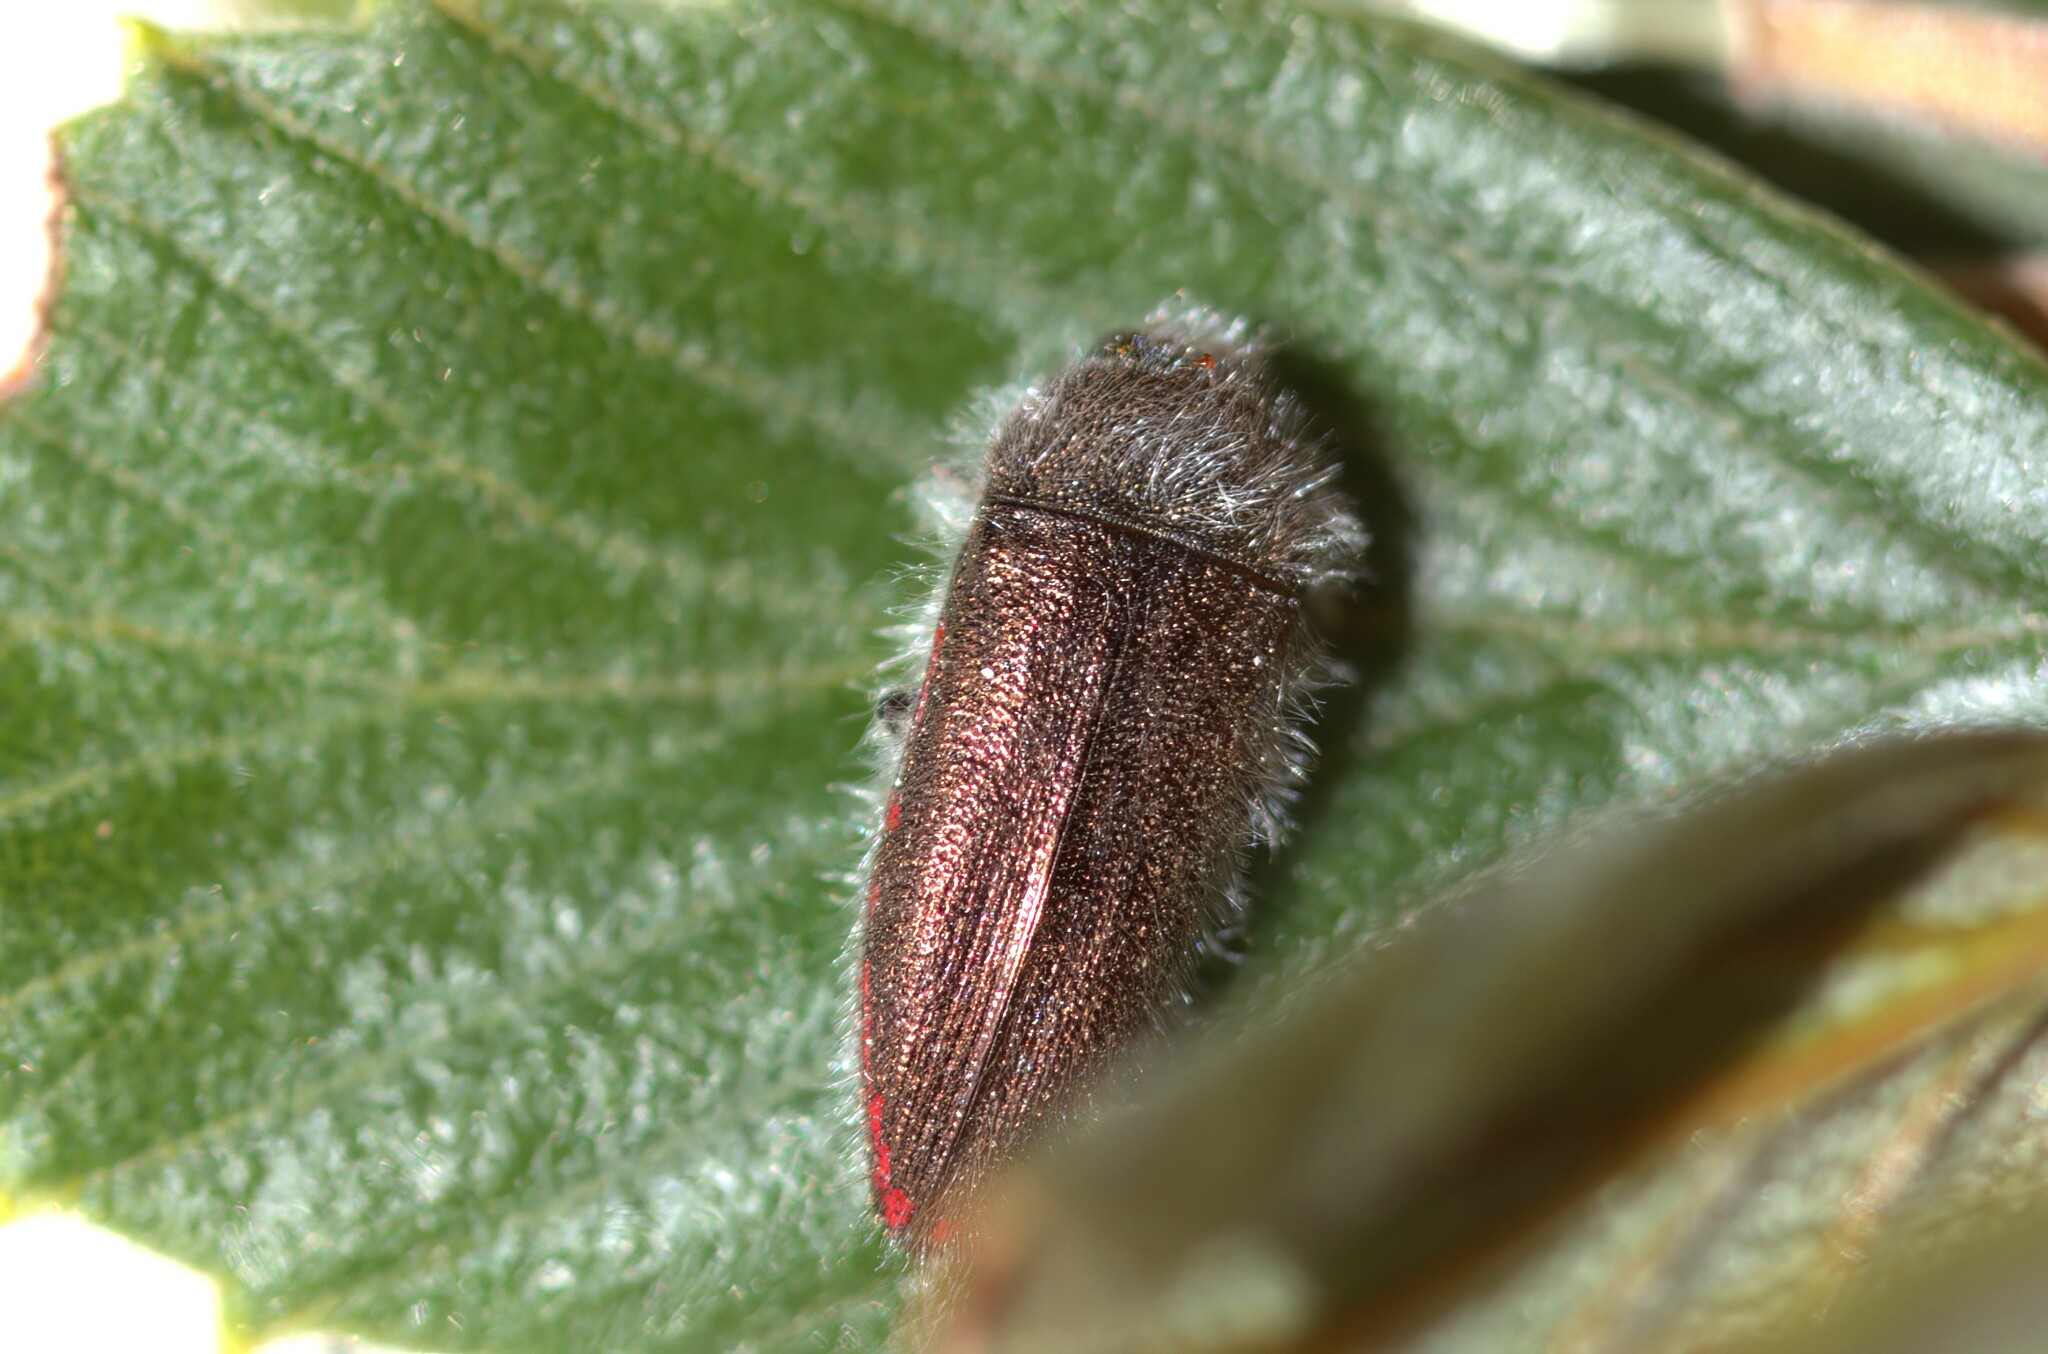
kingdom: Animalia
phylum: Arthropoda
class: Insecta
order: Coleoptera
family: Buprestidae
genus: Acmaeodera
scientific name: Acmaeodera rubrocuprea
